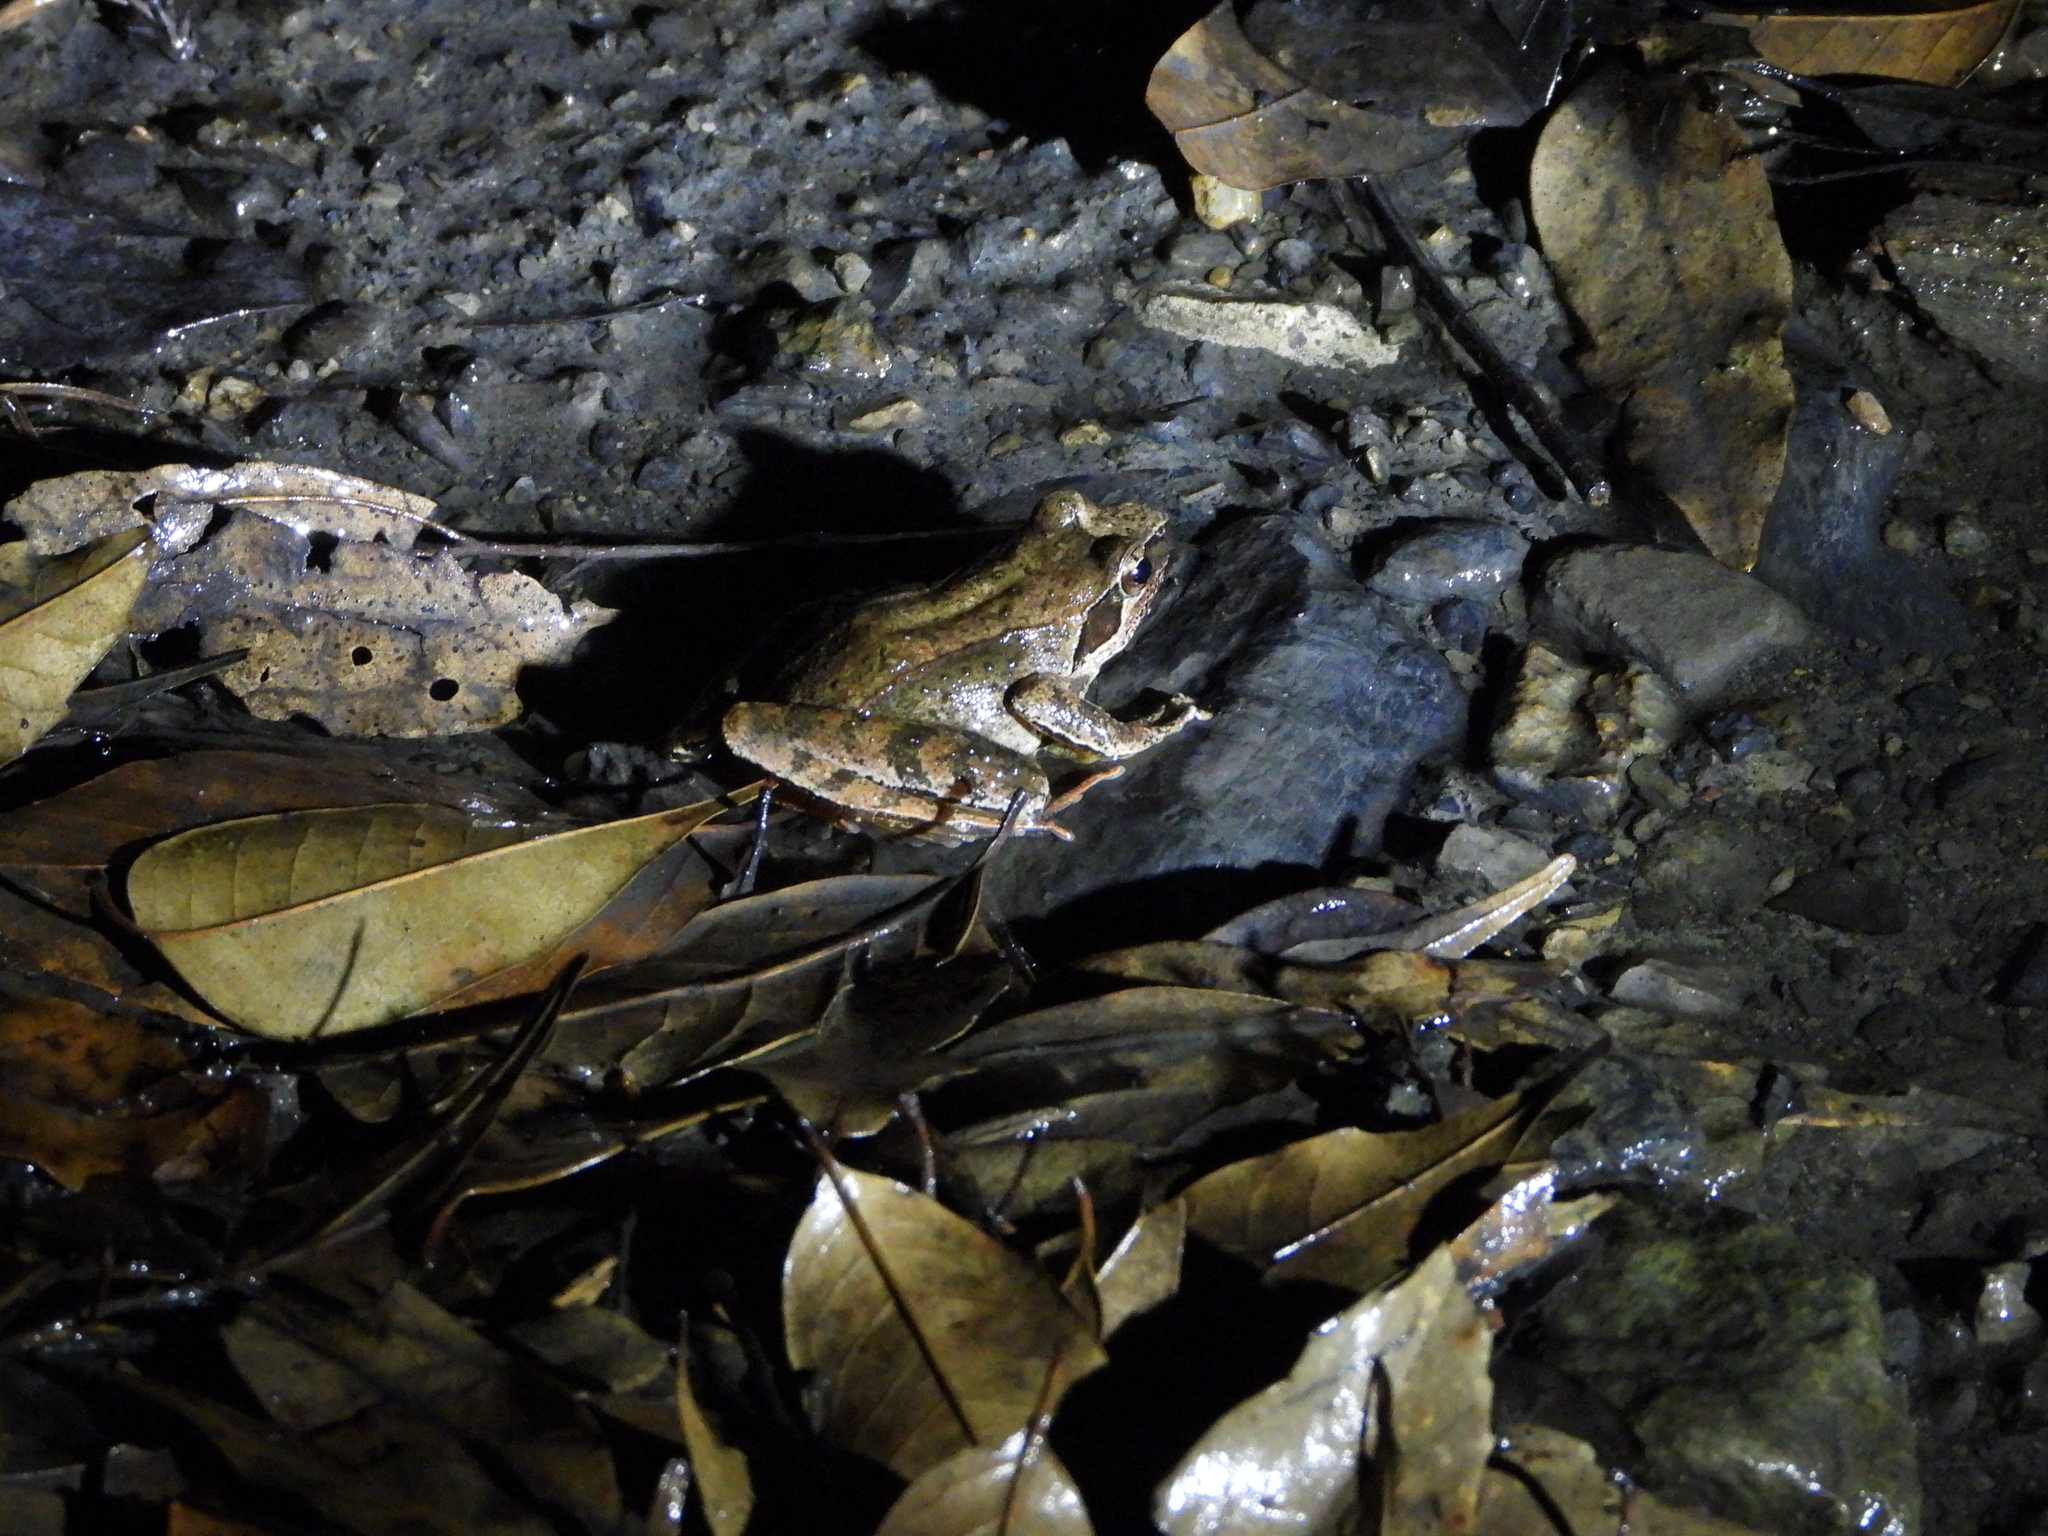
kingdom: Animalia
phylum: Chordata
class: Amphibia
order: Anura
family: Ranidae
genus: Rana
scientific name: Rana sauteri
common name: Kanshirei village frog
